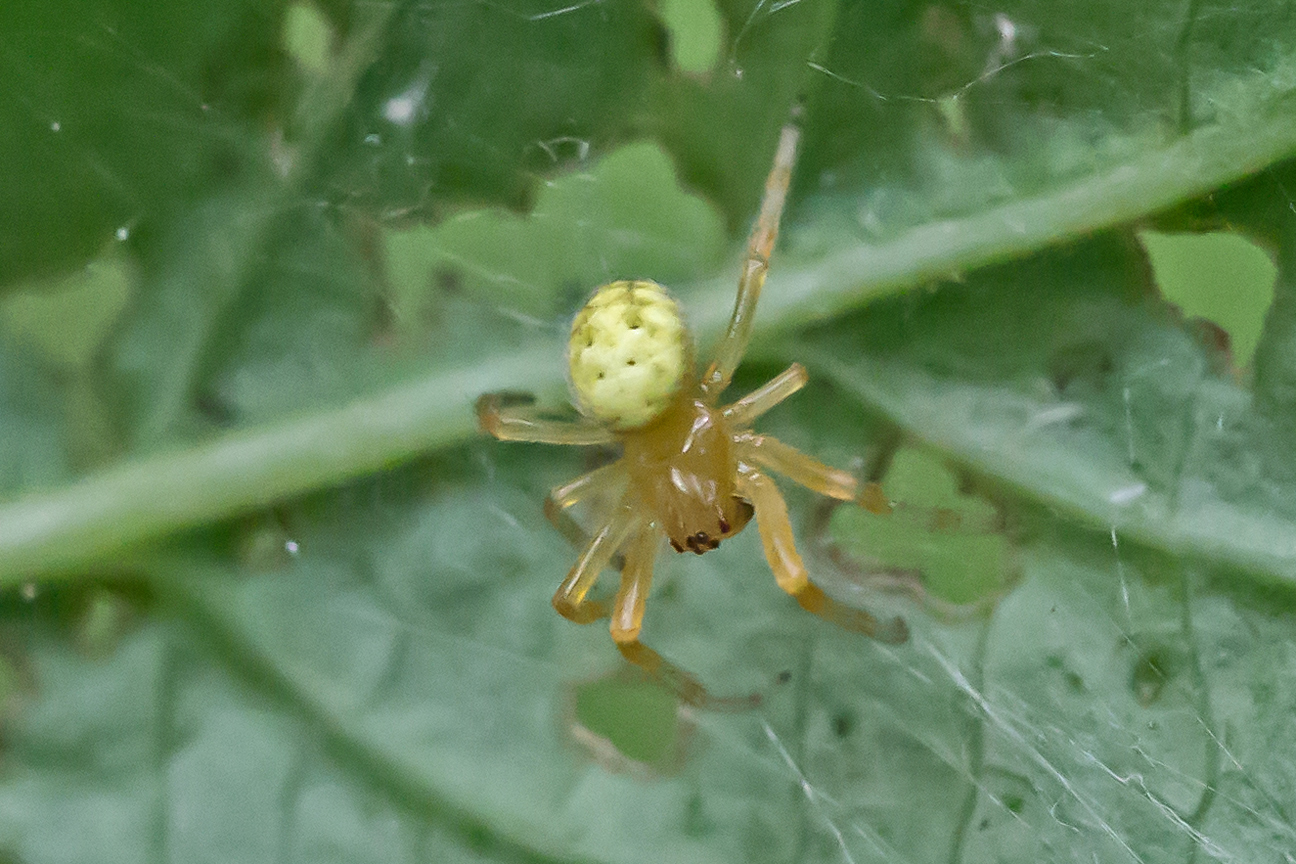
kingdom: Animalia
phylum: Arthropoda
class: Arachnida
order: Araneae
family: Araneidae
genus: Araneus
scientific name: Araneus thaddeus
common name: Lattice orbweaver
